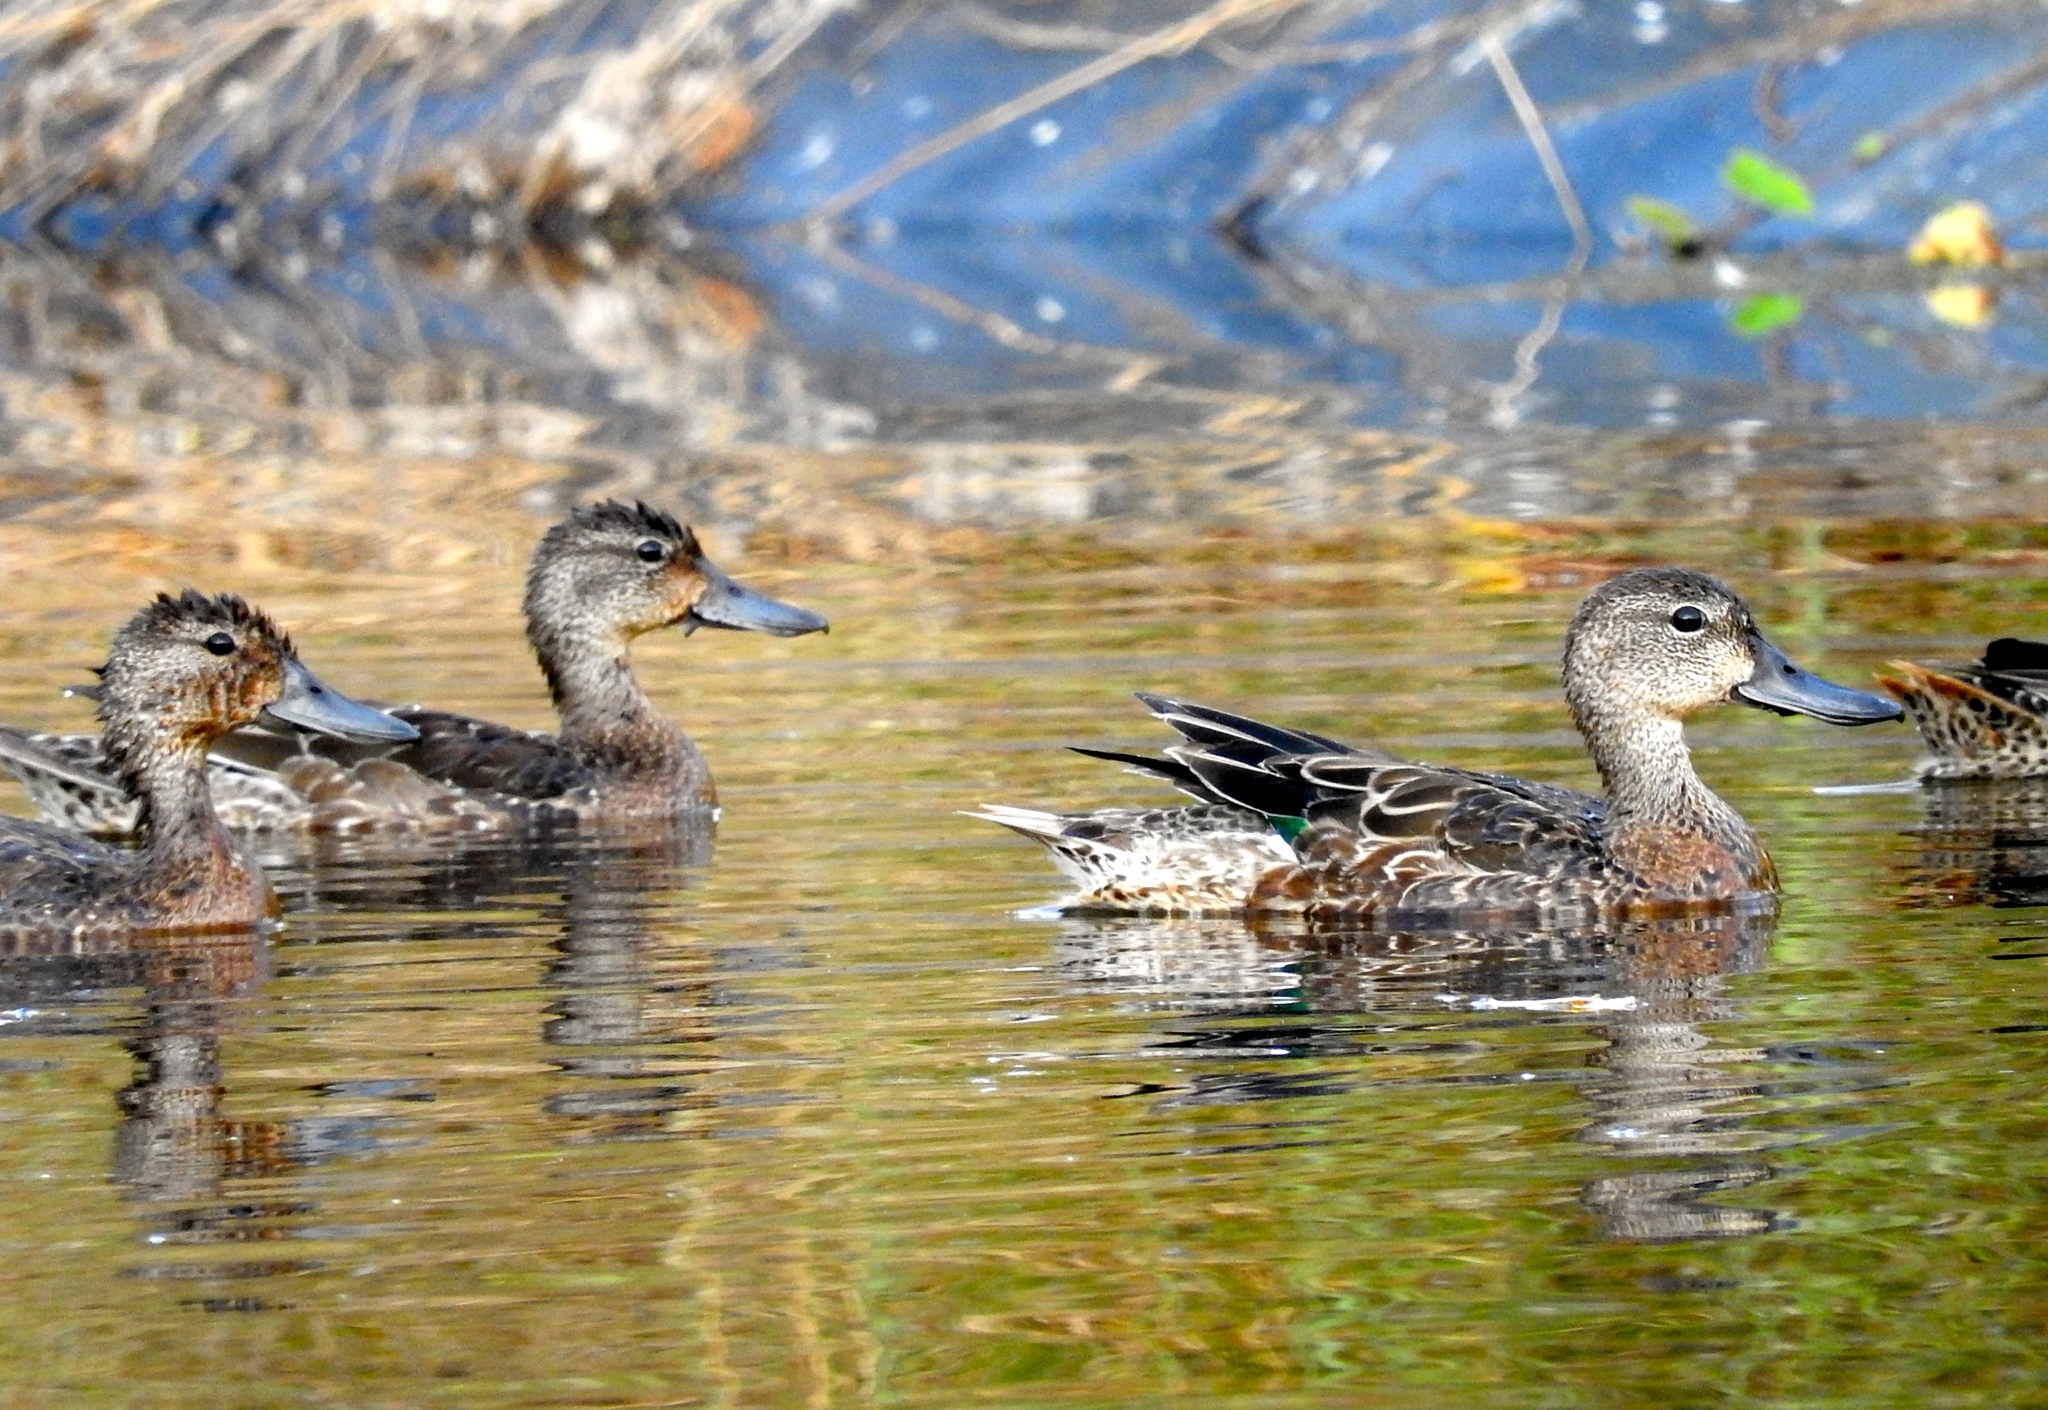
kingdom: Animalia
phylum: Chordata
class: Aves
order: Anseriformes
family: Anatidae
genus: Spatula
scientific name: Spatula discors
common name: Blue-winged teal
